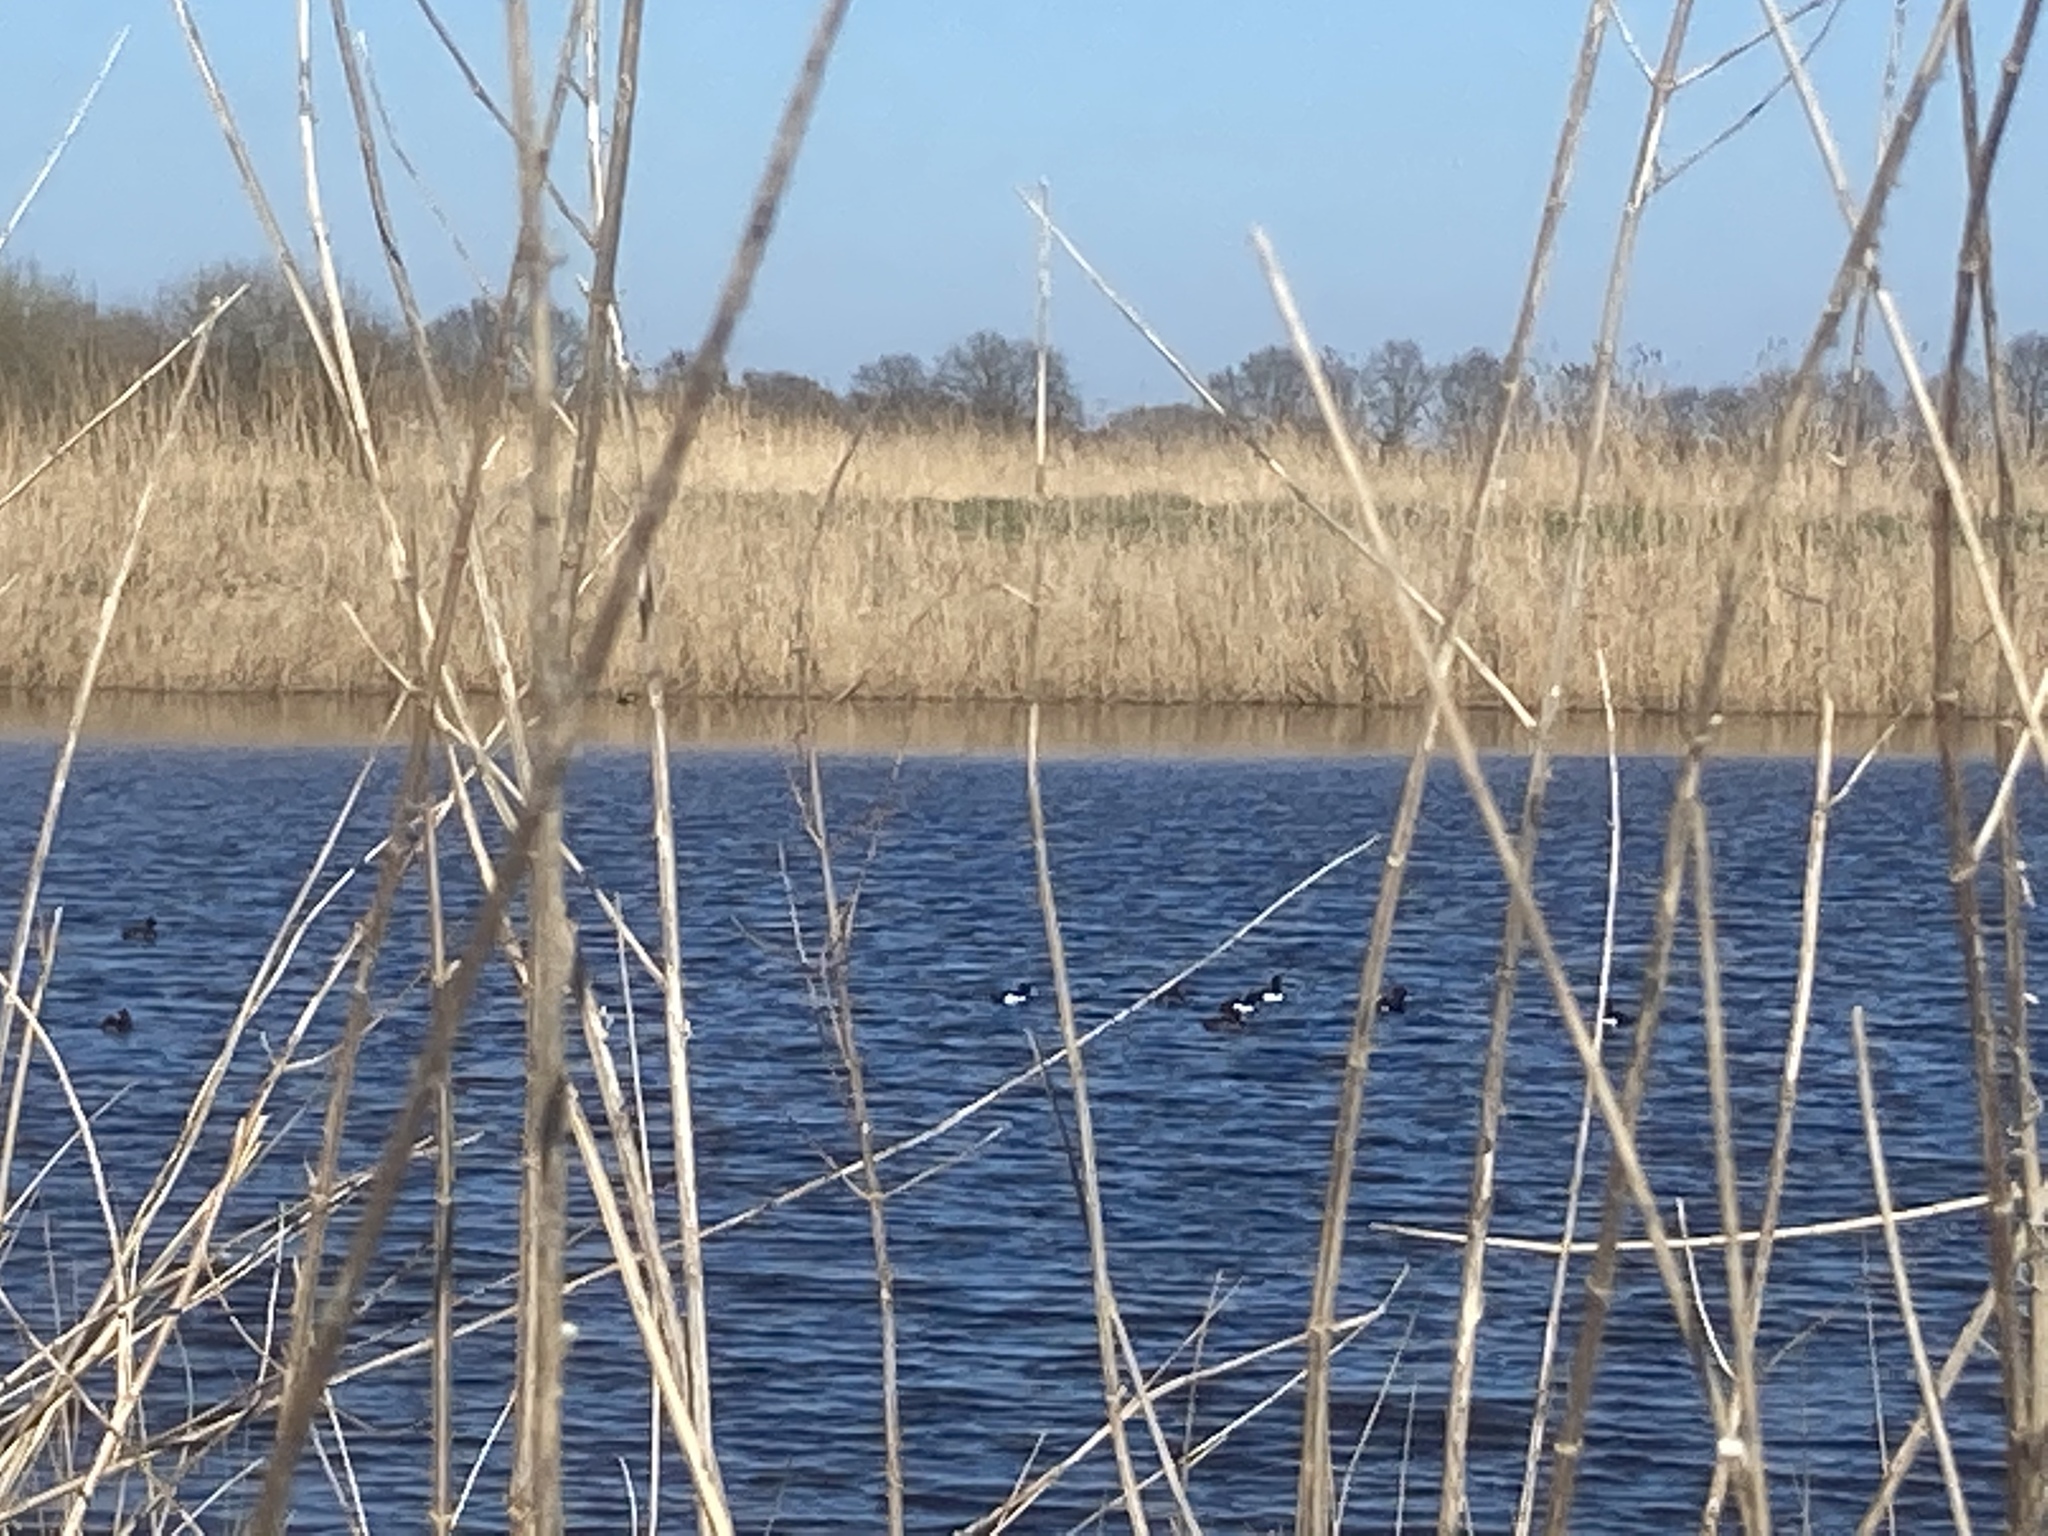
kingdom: Animalia
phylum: Chordata
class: Aves
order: Anseriformes
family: Anatidae
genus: Aythya
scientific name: Aythya fuligula
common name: Tufted duck
